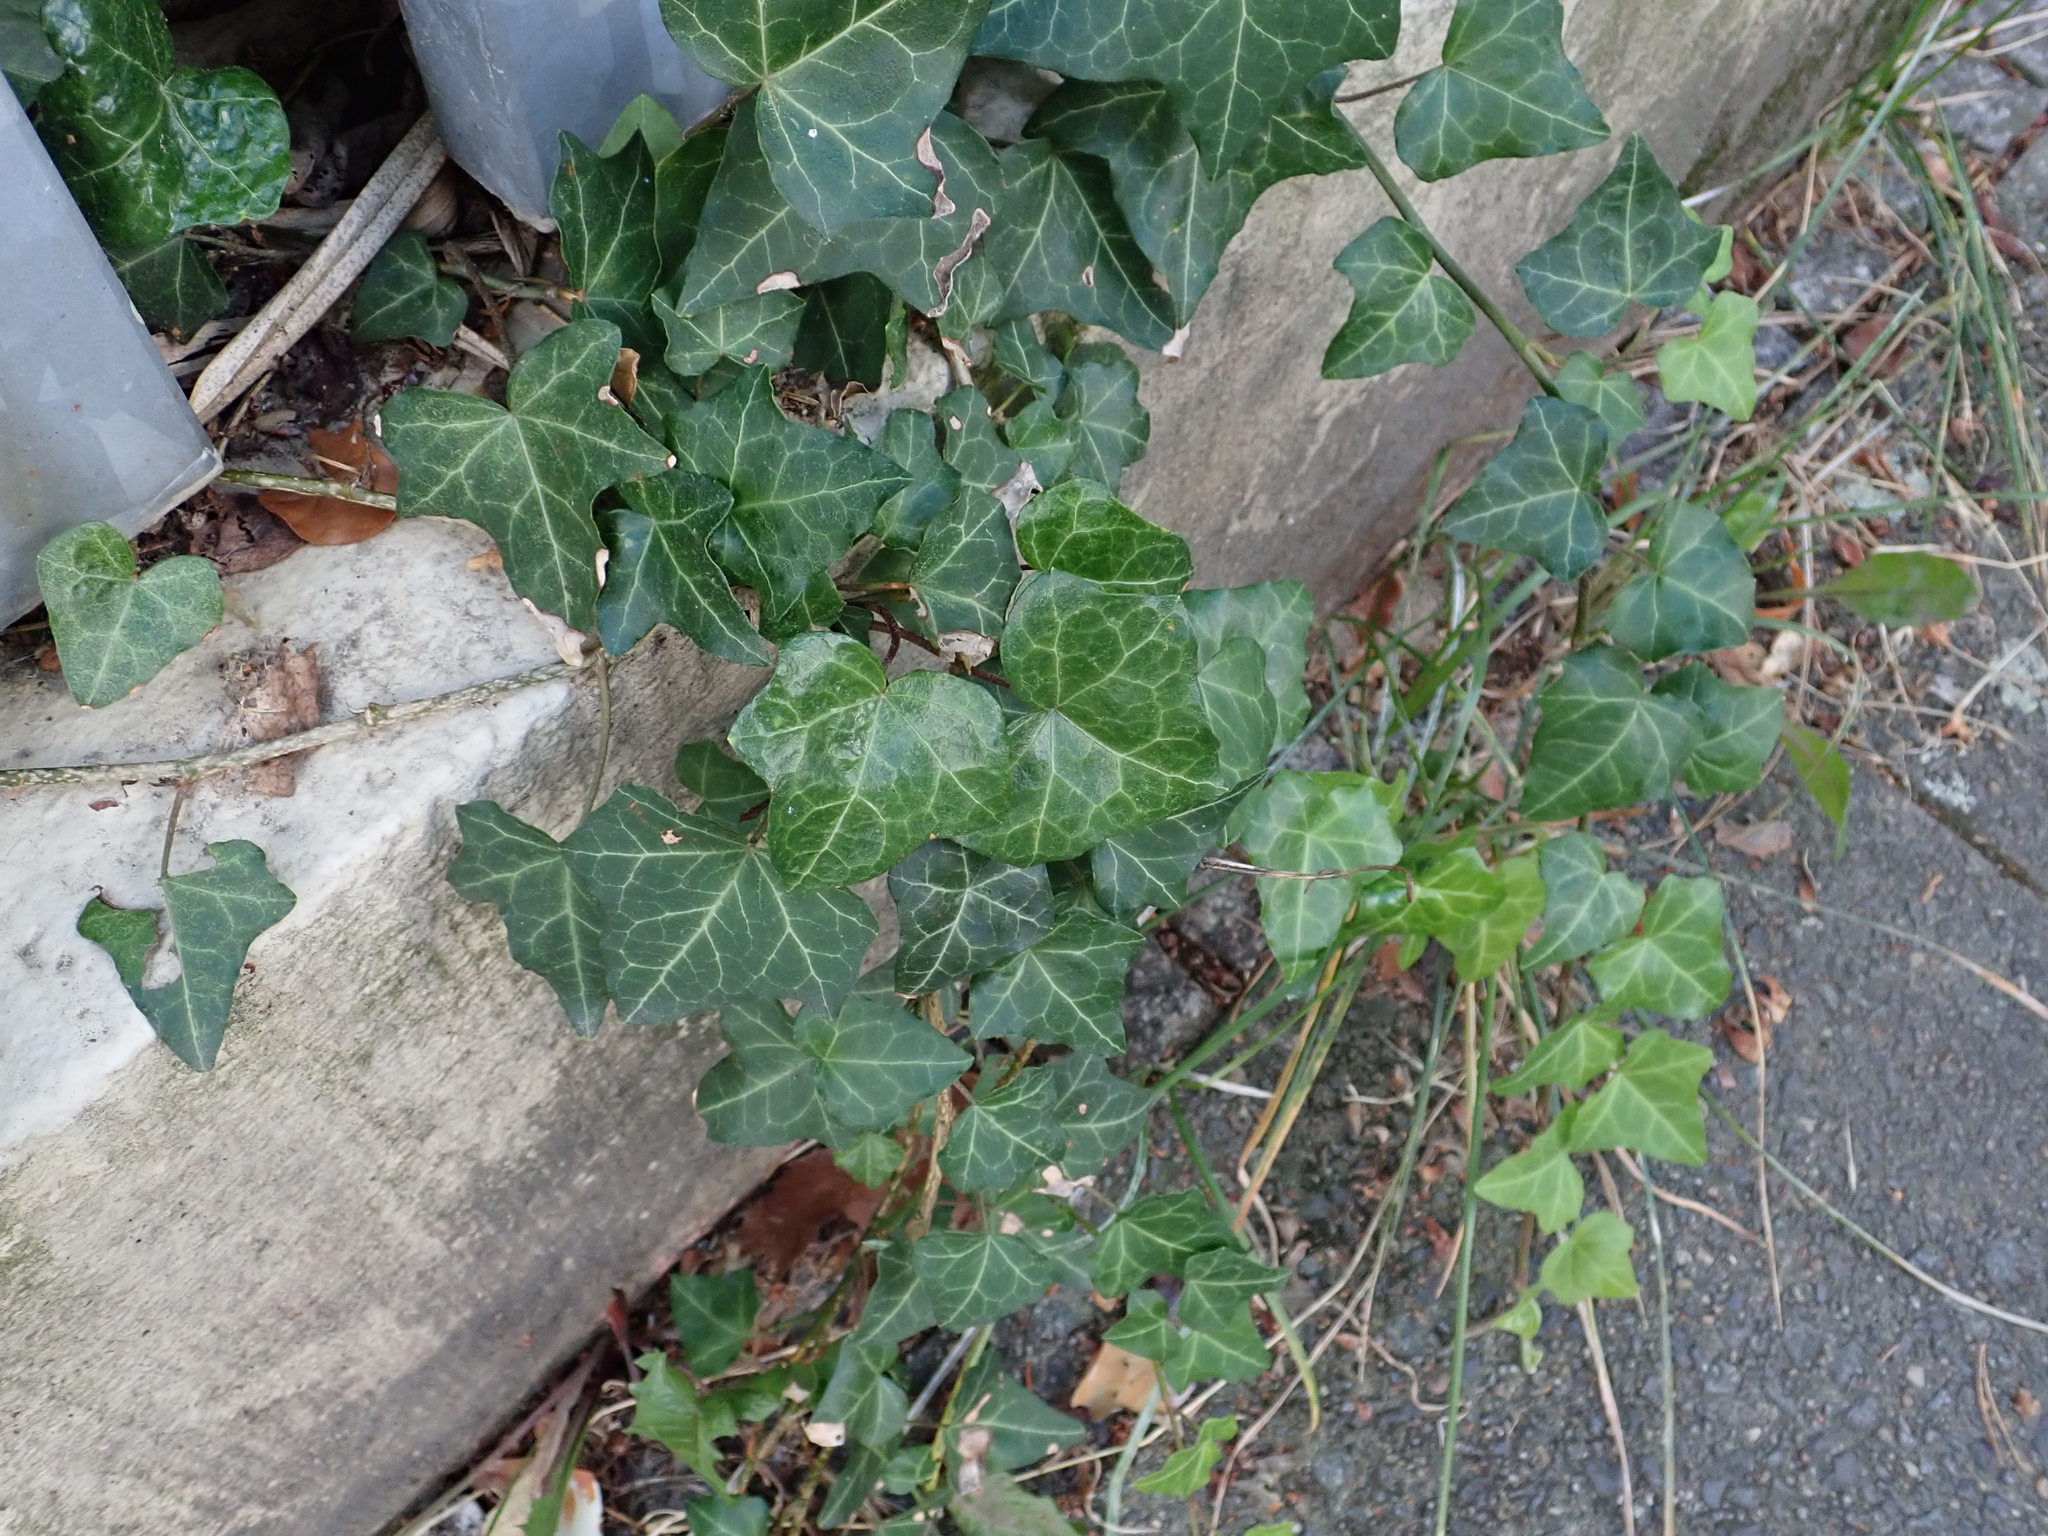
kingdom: Plantae
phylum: Tracheophyta
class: Magnoliopsida
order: Apiales
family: Araliaceae
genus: Hedera
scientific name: Hedera helix
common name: Ivy
